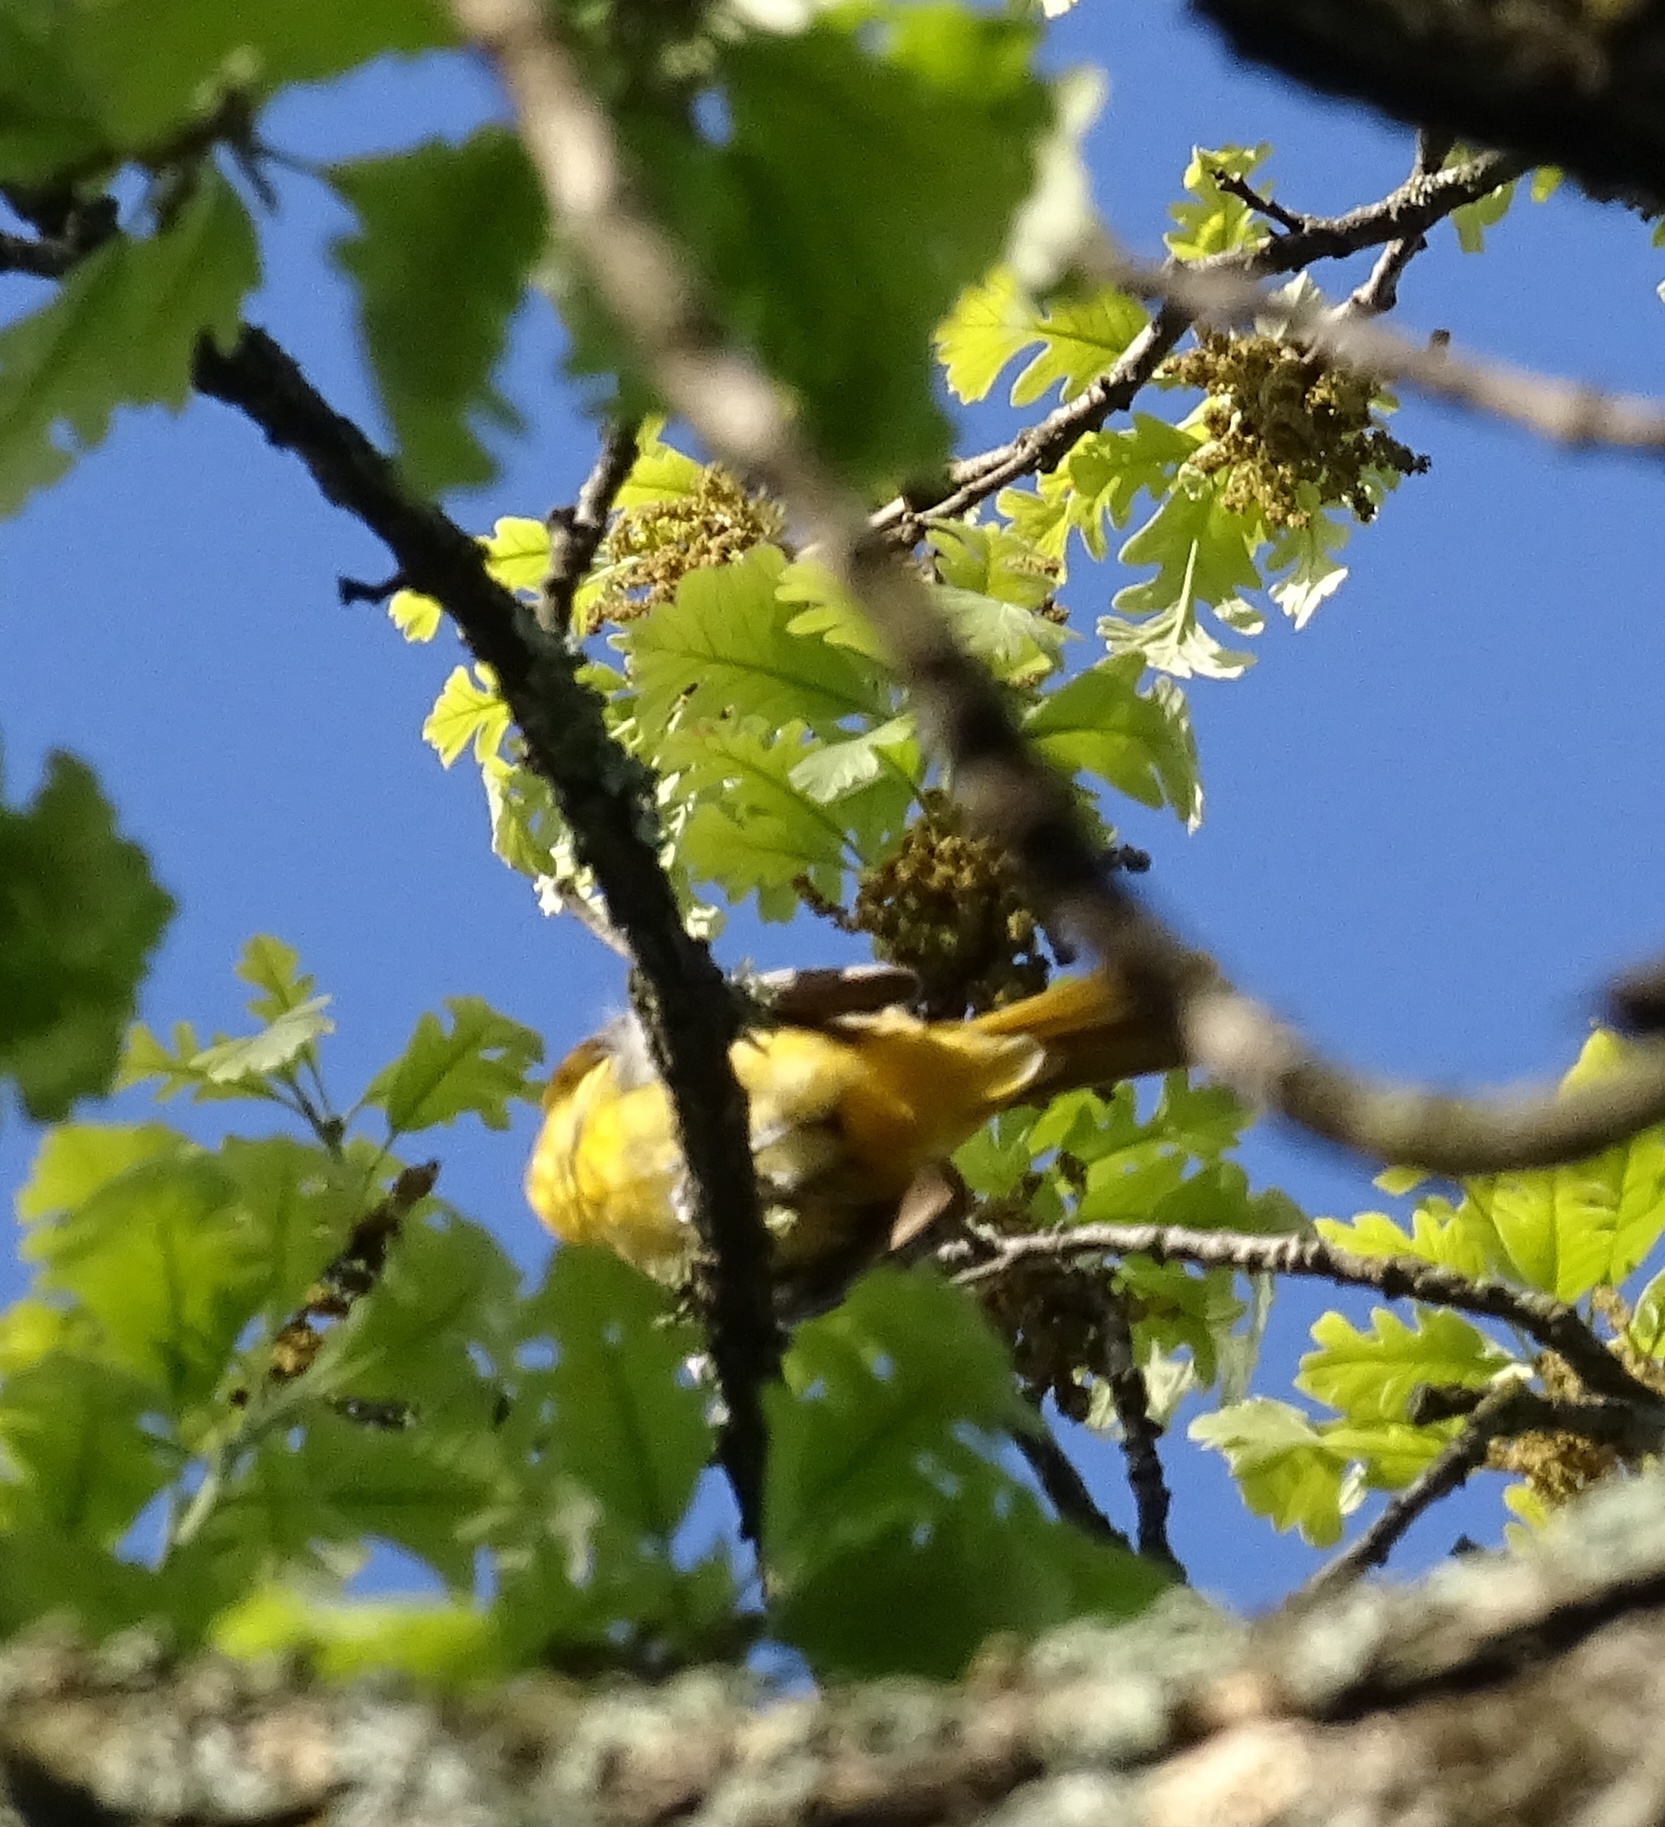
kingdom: Animalia
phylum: Chordata
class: Aves
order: Passeriformes
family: Icteridae
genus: Icterus
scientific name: Icterus galbula
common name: Baltimore oriole
